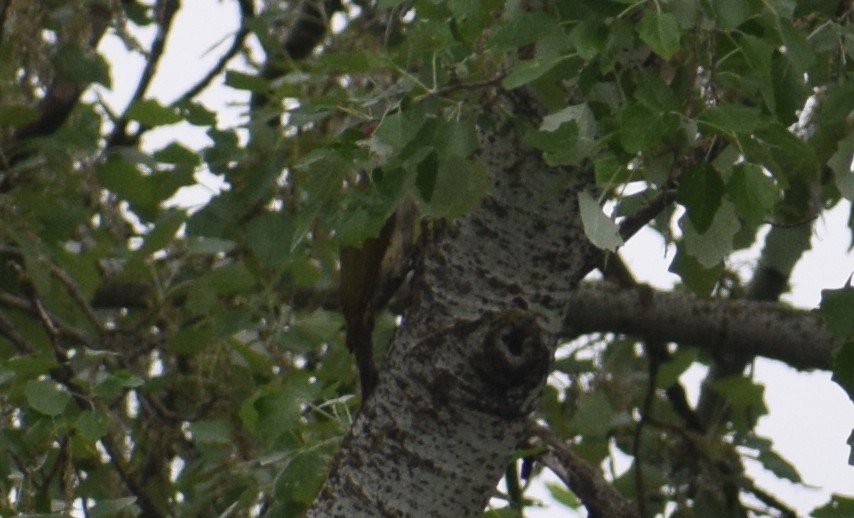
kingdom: Animalia
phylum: Chordata
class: Aves
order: Piciformes
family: Picidae
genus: Picus
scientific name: Picus viridis
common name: European green woodpecker
